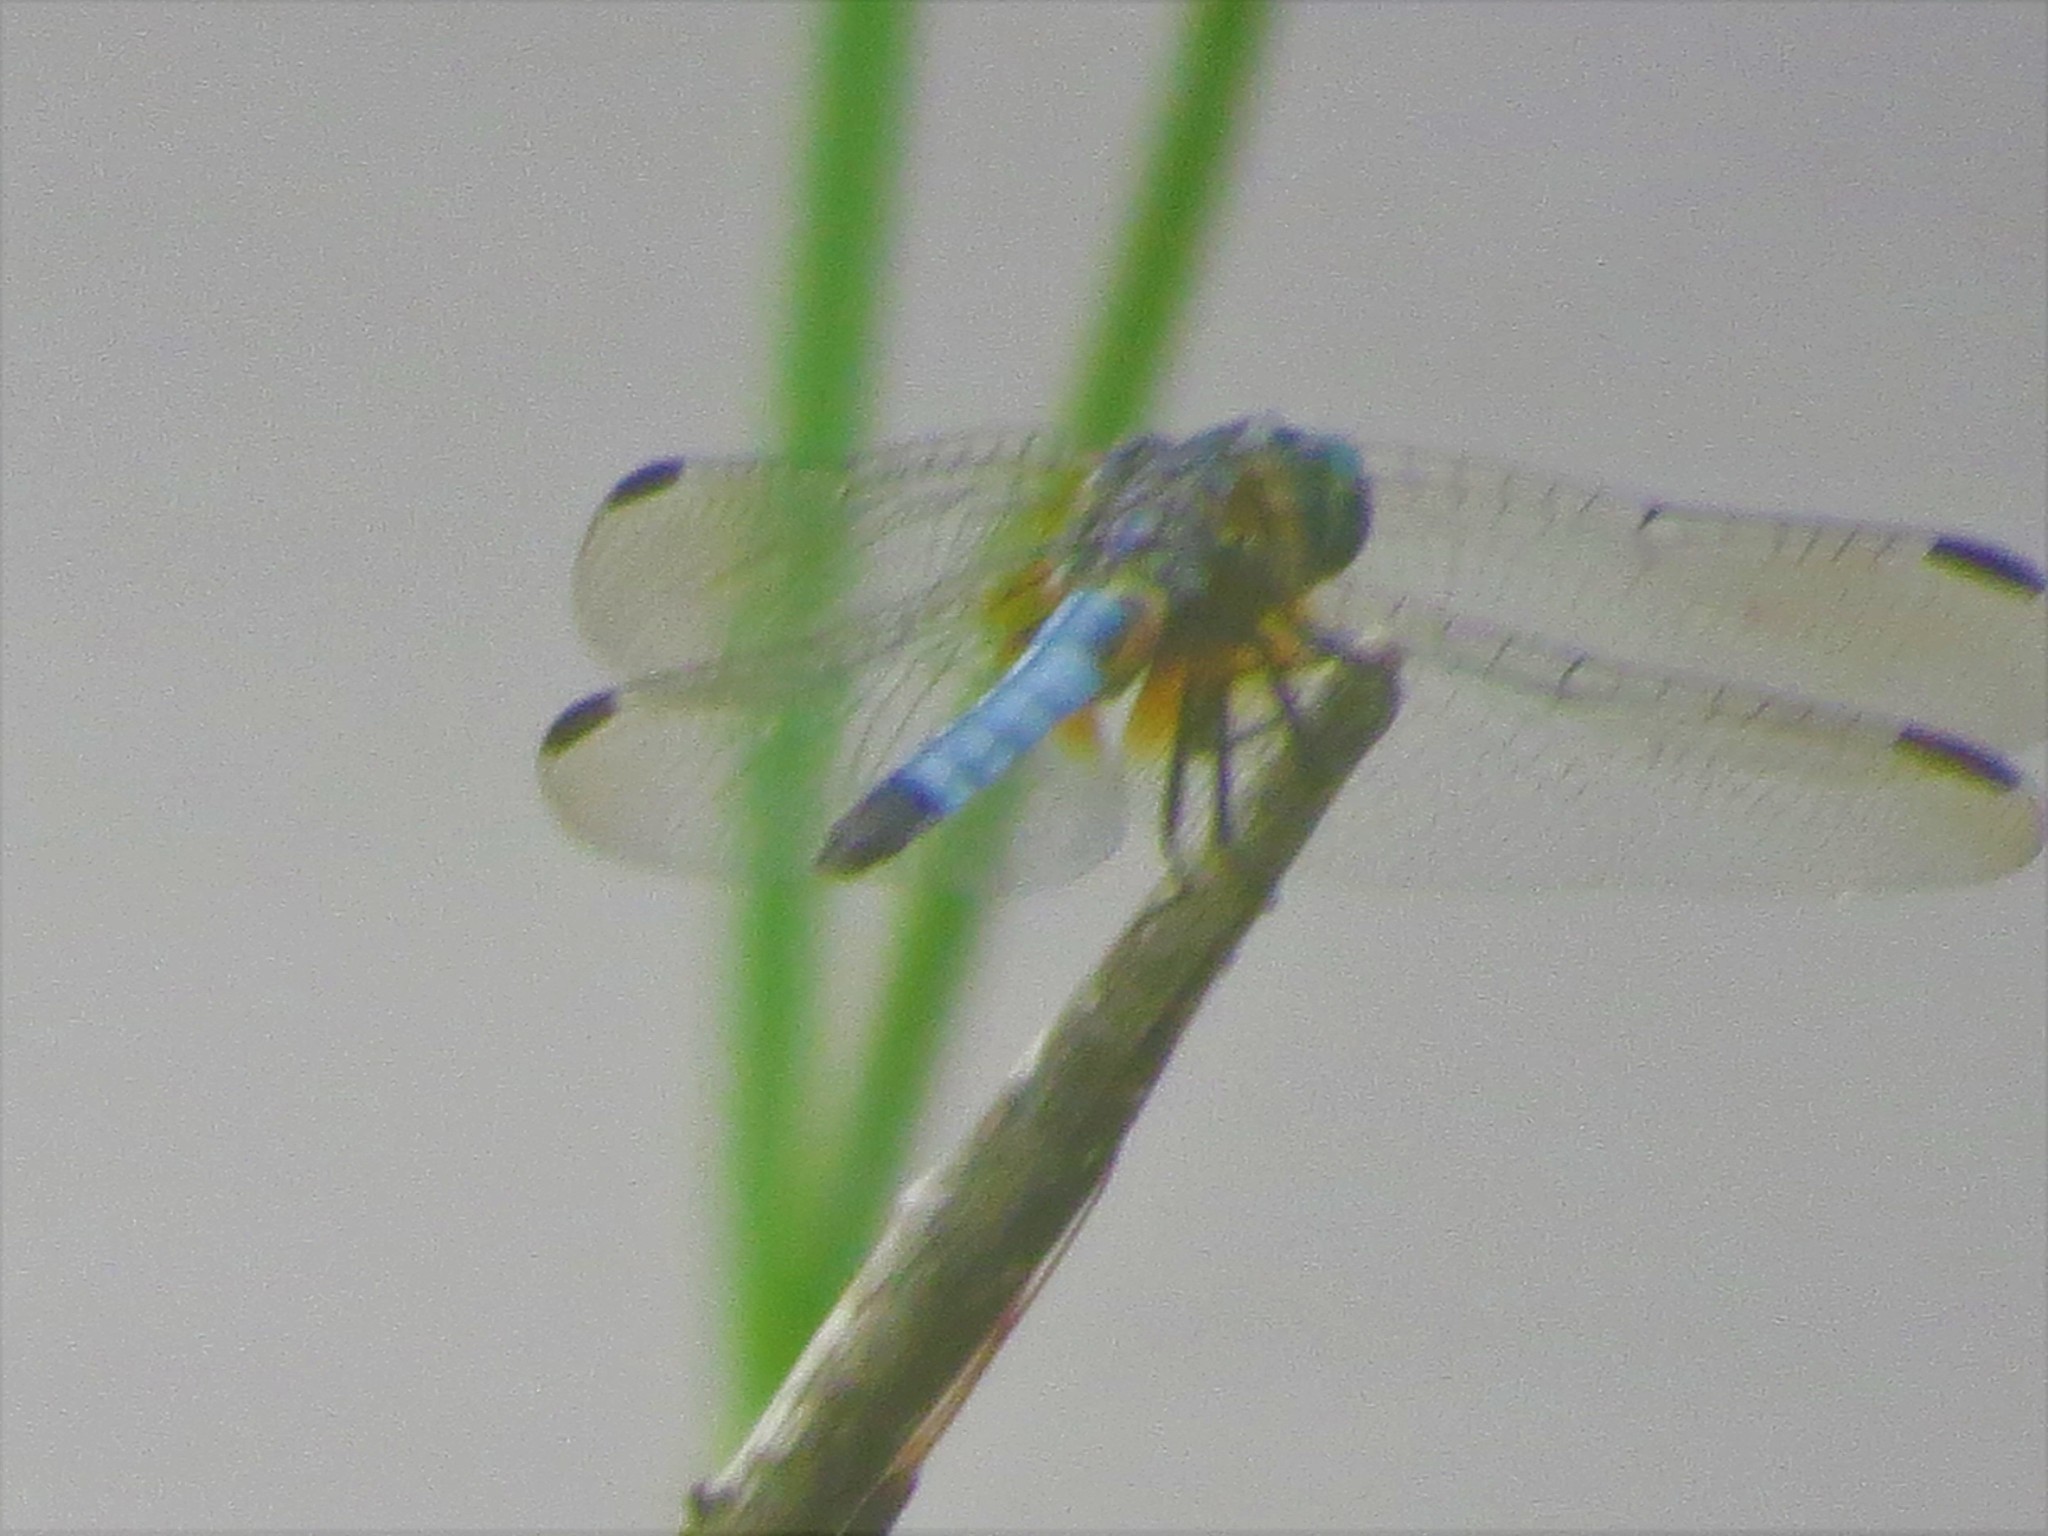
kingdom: Animalia
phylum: Arthropoda
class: Insecta
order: Odonata
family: Libellulidae
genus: Pachydiplax
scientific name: Pachydiplax longipennis
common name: Blue dasher
